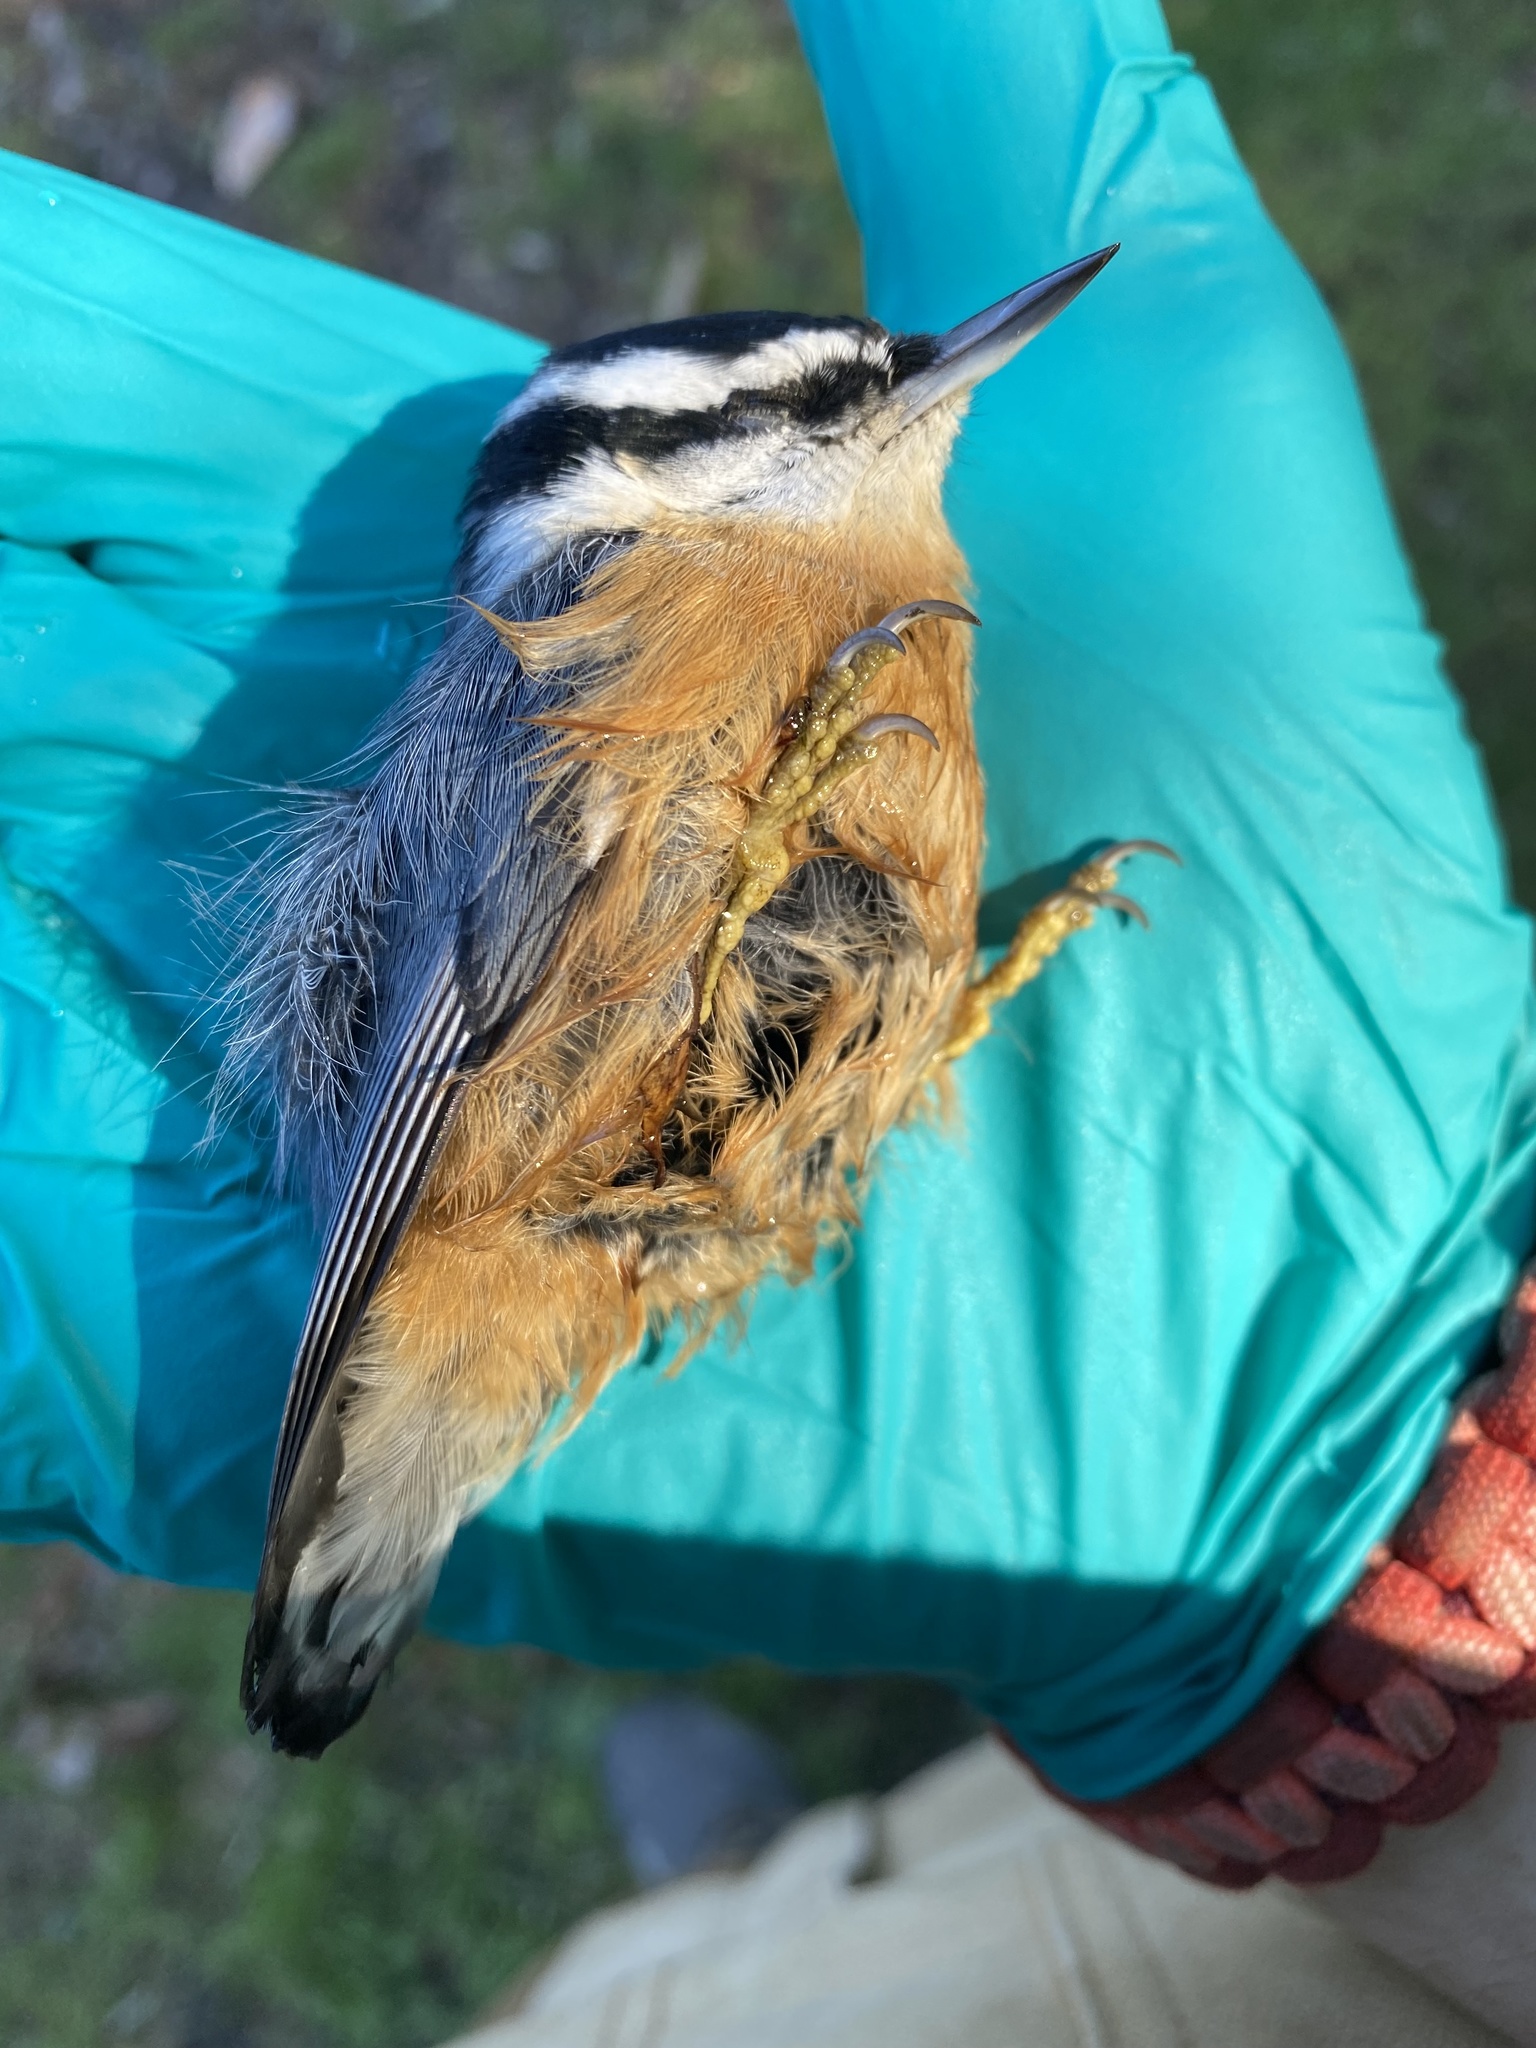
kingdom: Animalia
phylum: Chordata
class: Aves
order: Passeriformes
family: Sittidae
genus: Sitta
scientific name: Sitta canadensis
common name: Red-breasted nuthatch
